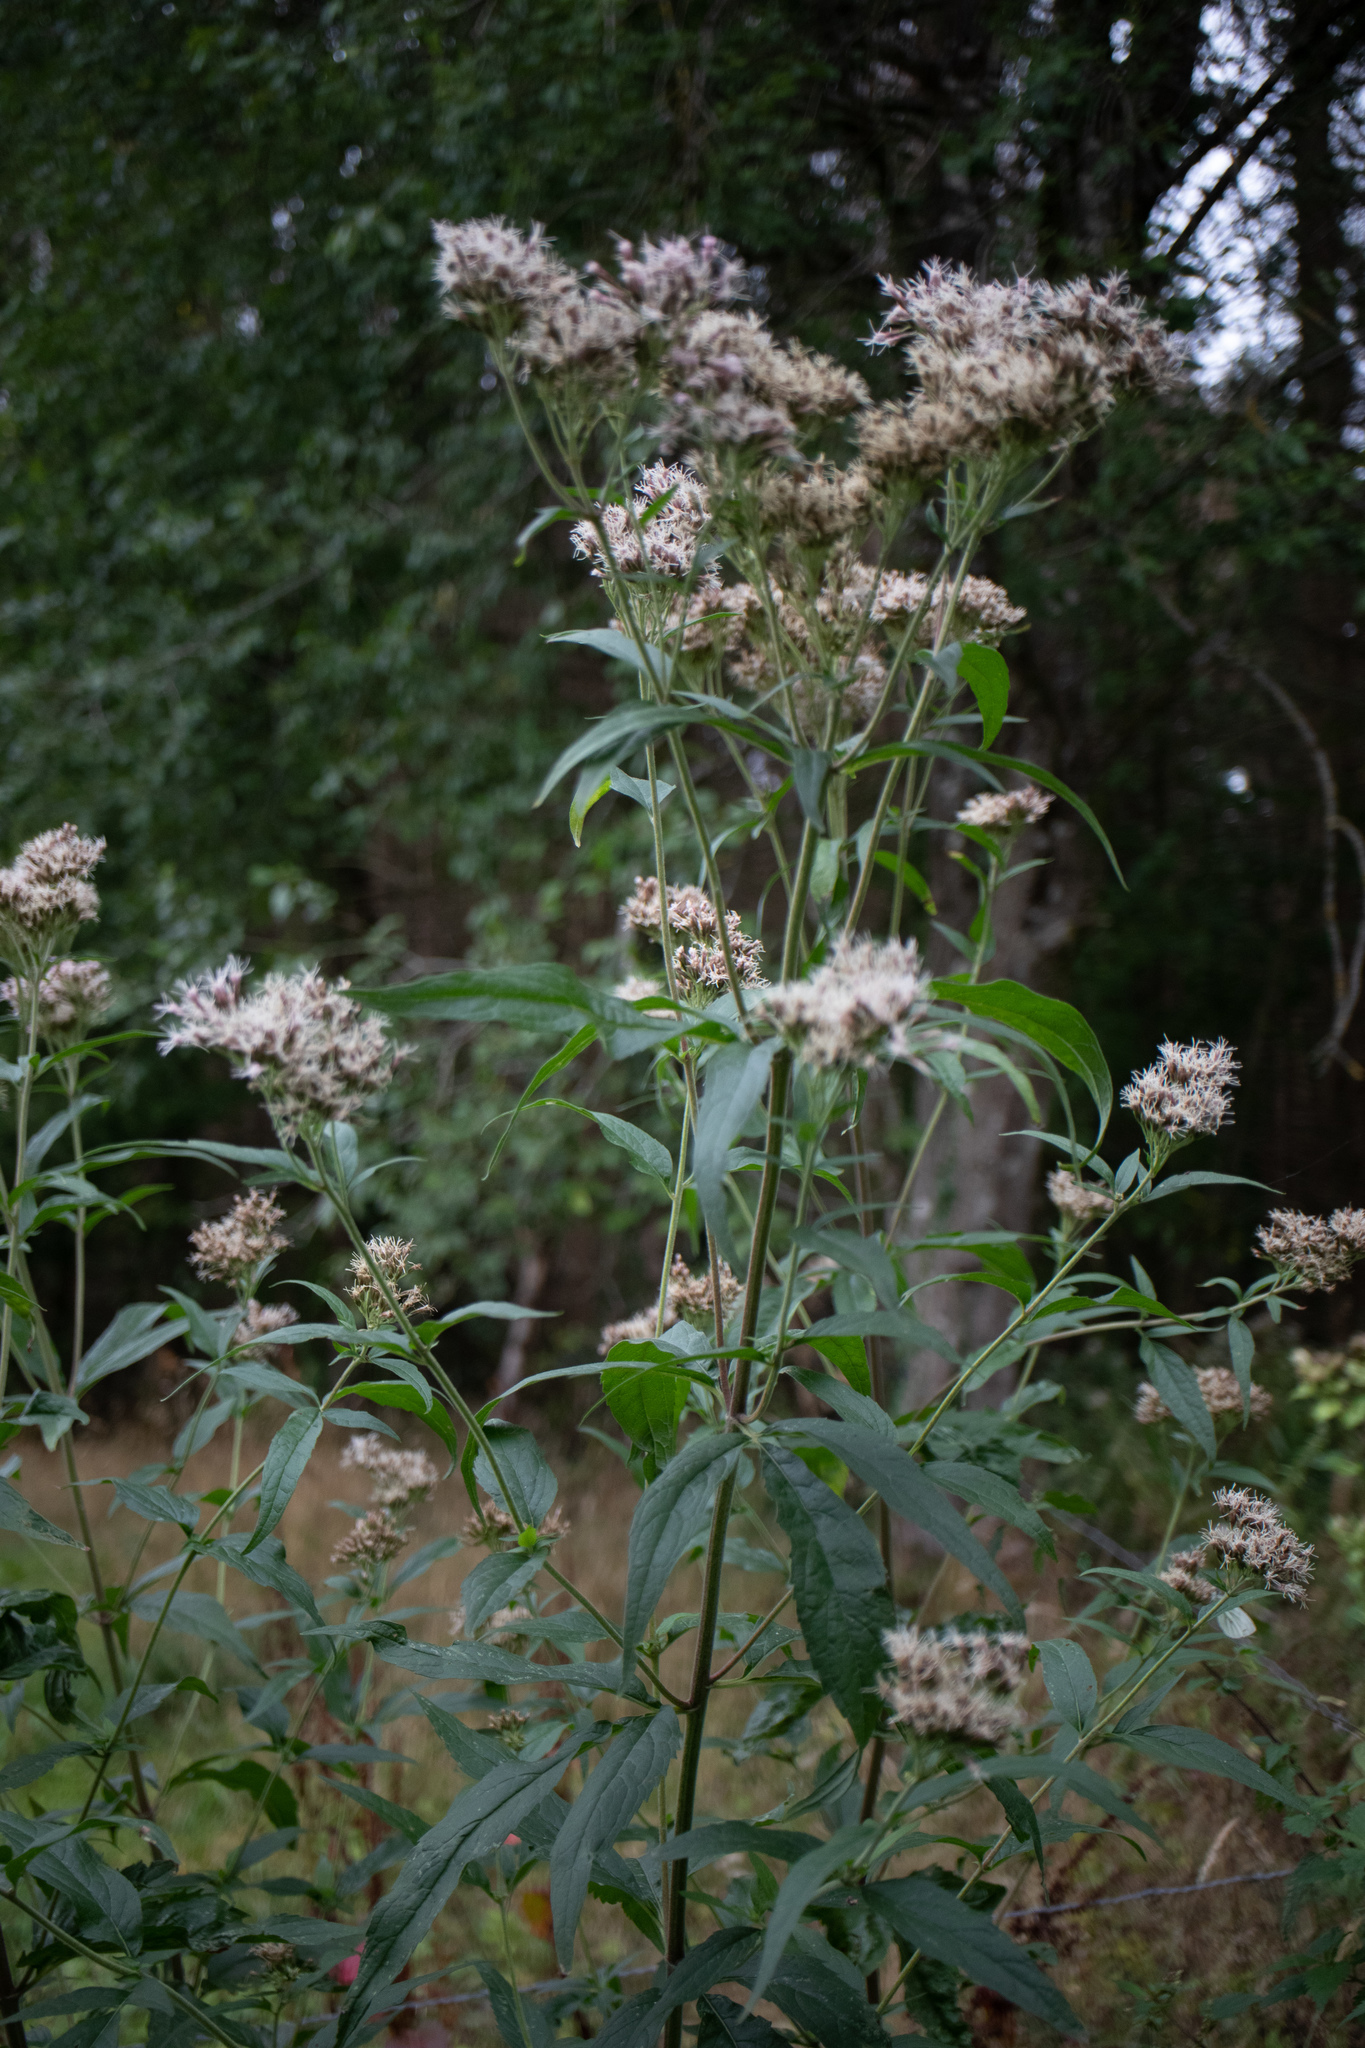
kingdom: Plantae
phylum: Tracheophyta
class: Magnoliopsida
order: Asterales
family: Asteraceae
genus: Eupatorium
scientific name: Eupatorium cannabinum
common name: Hemp-agrimony
